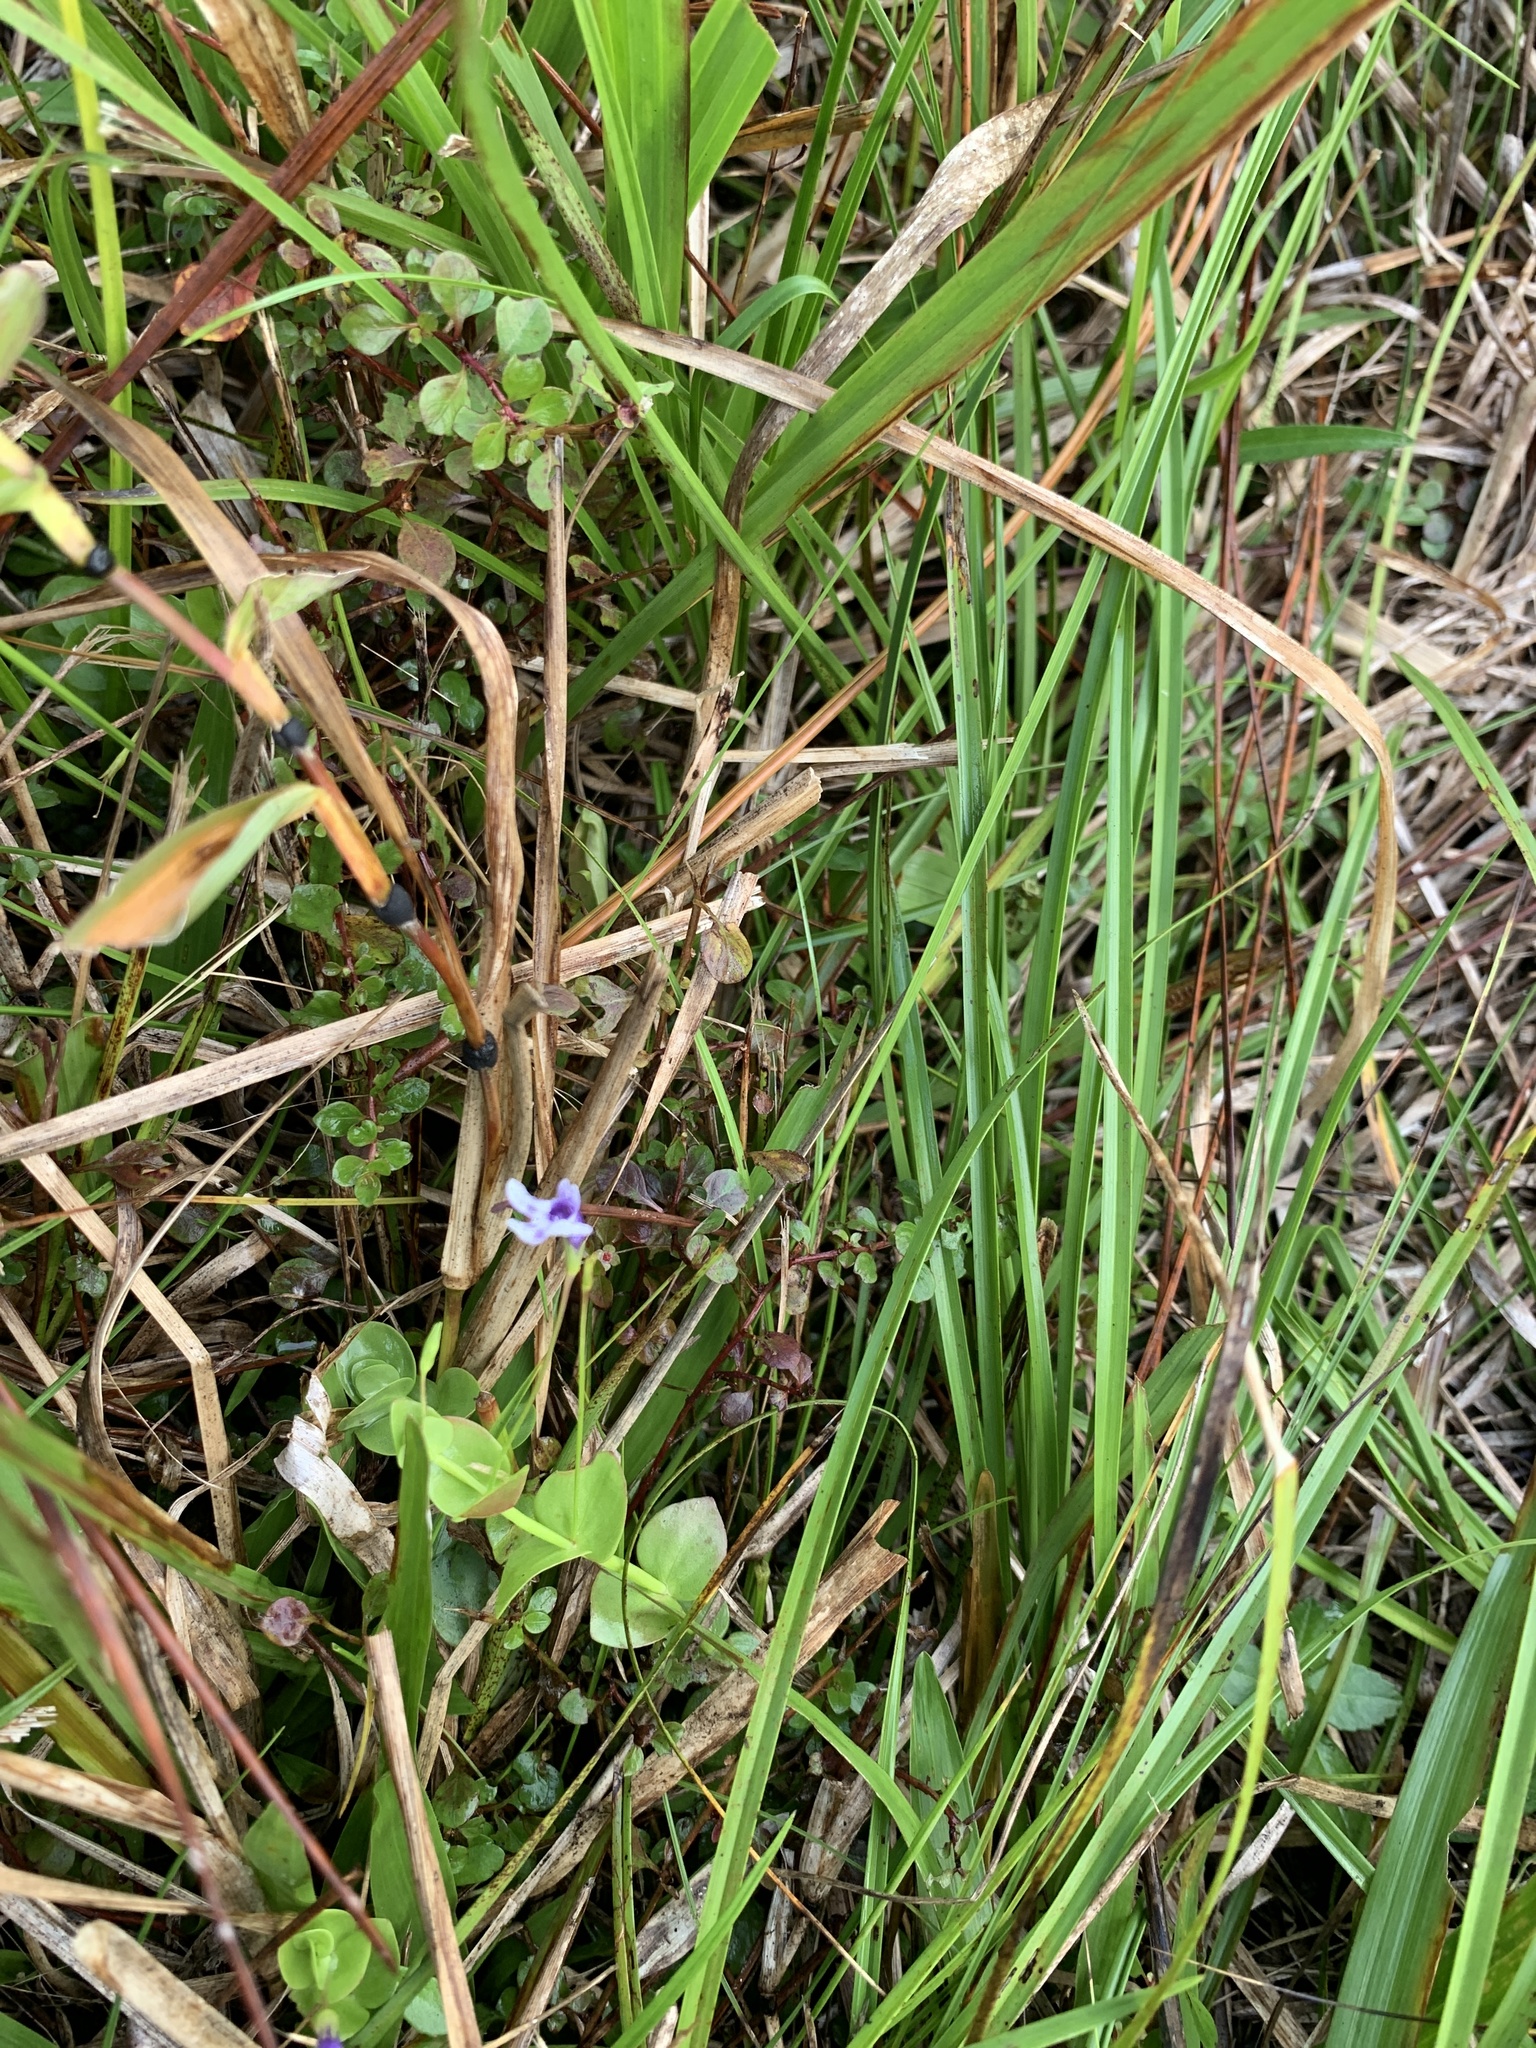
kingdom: Plantae
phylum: Tracheophyta
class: Magnoliopsida
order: Lamiales
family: Linderniaceae
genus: Lindernia
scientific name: Lindernia grandiflora
